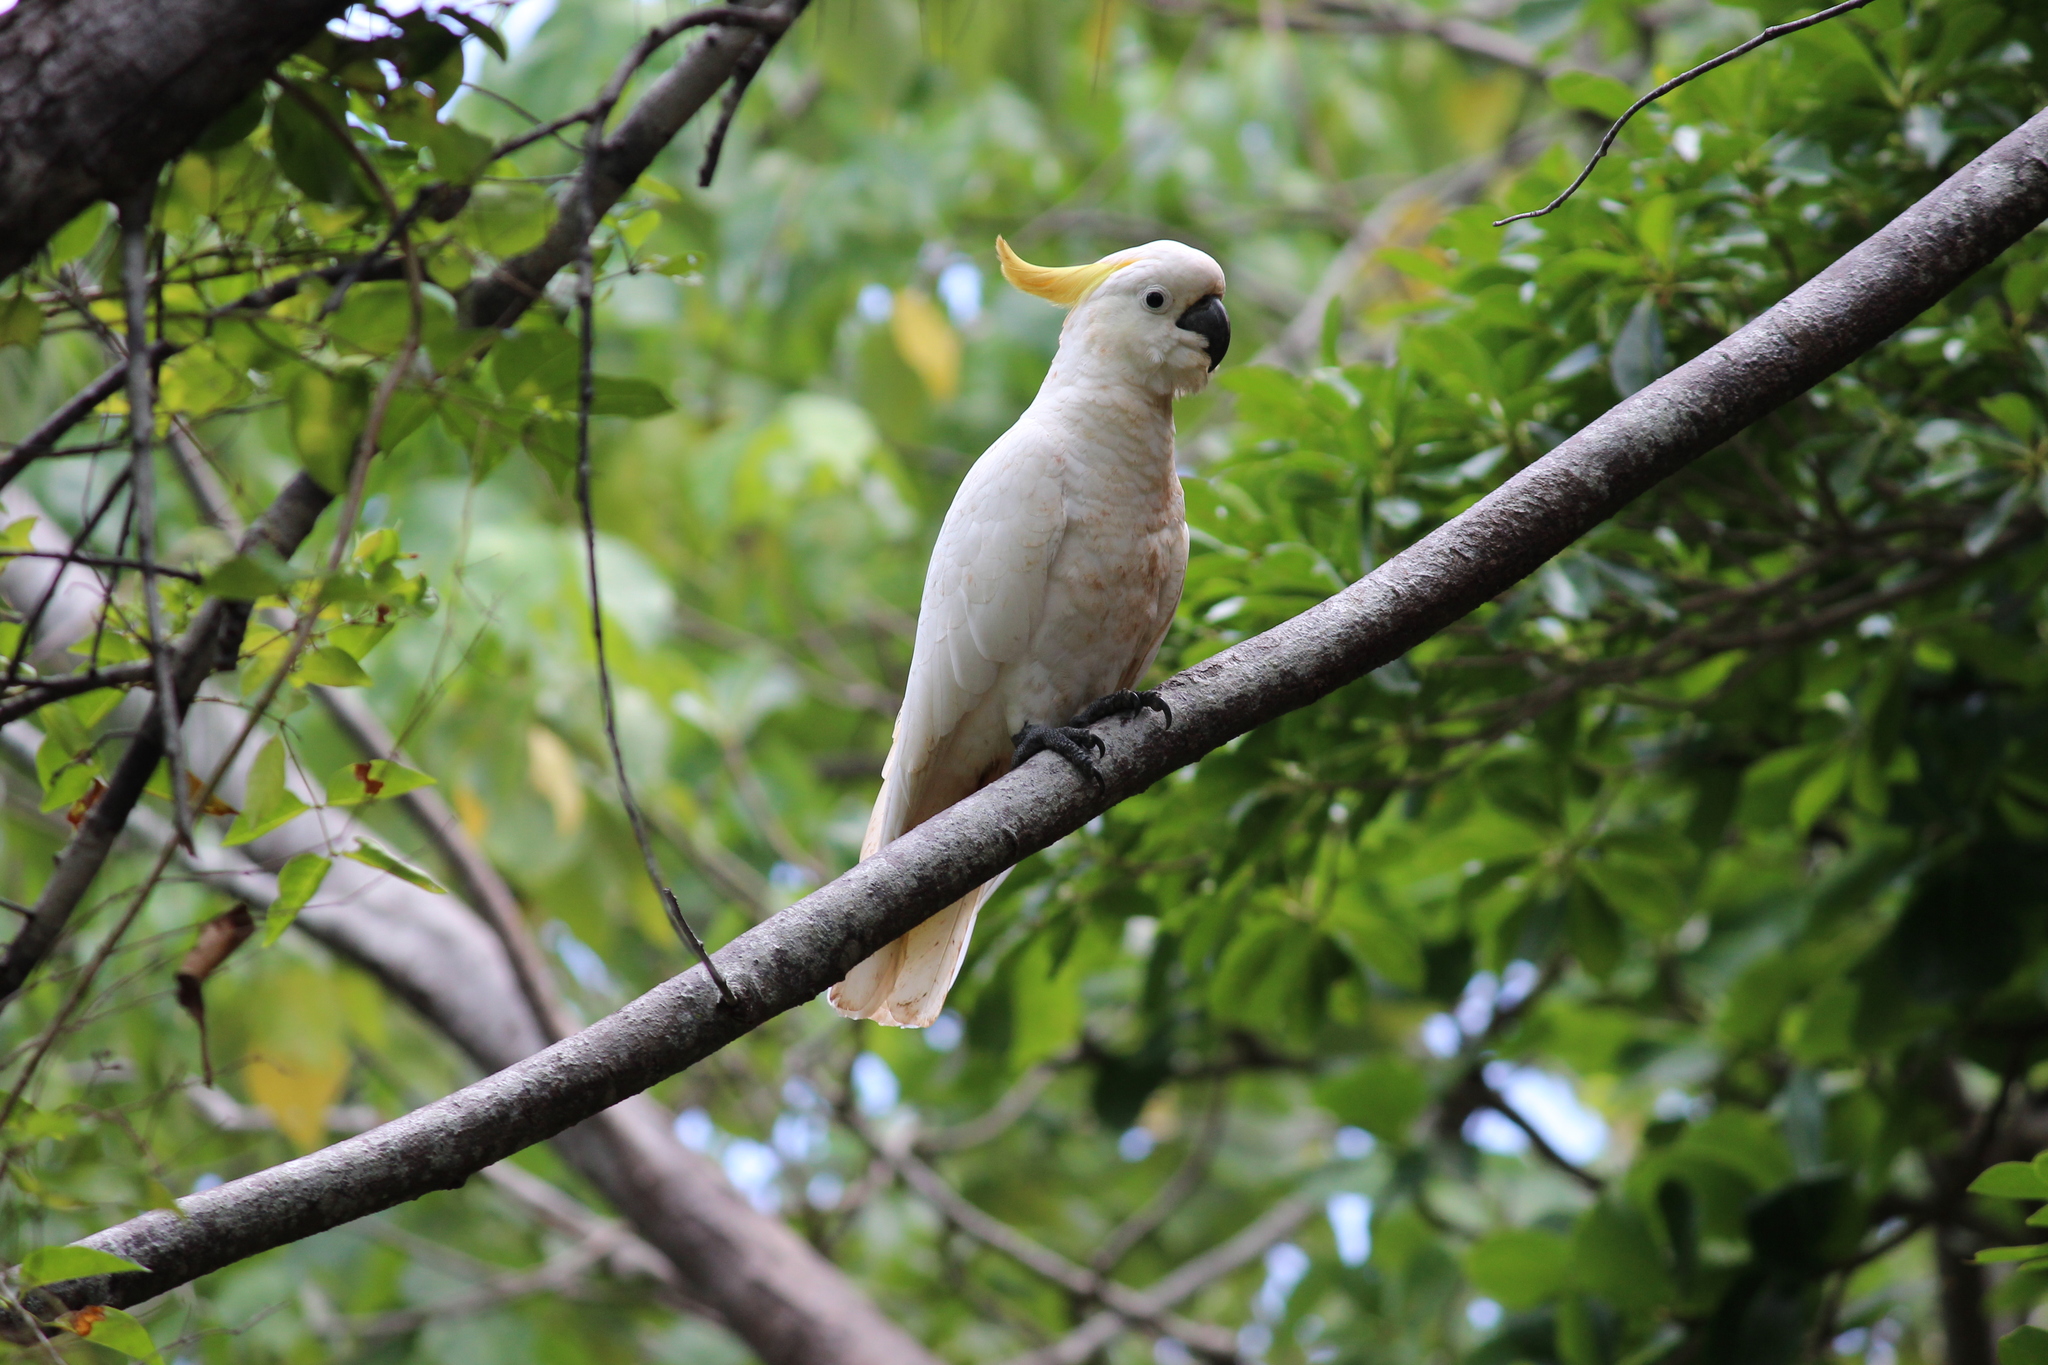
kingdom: Animalia
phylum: Chordata
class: Aves
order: Psittaciformes
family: Psittacidae
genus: Cacatua
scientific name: Cacatua galerita
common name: Sulphur-crested cockatoo
